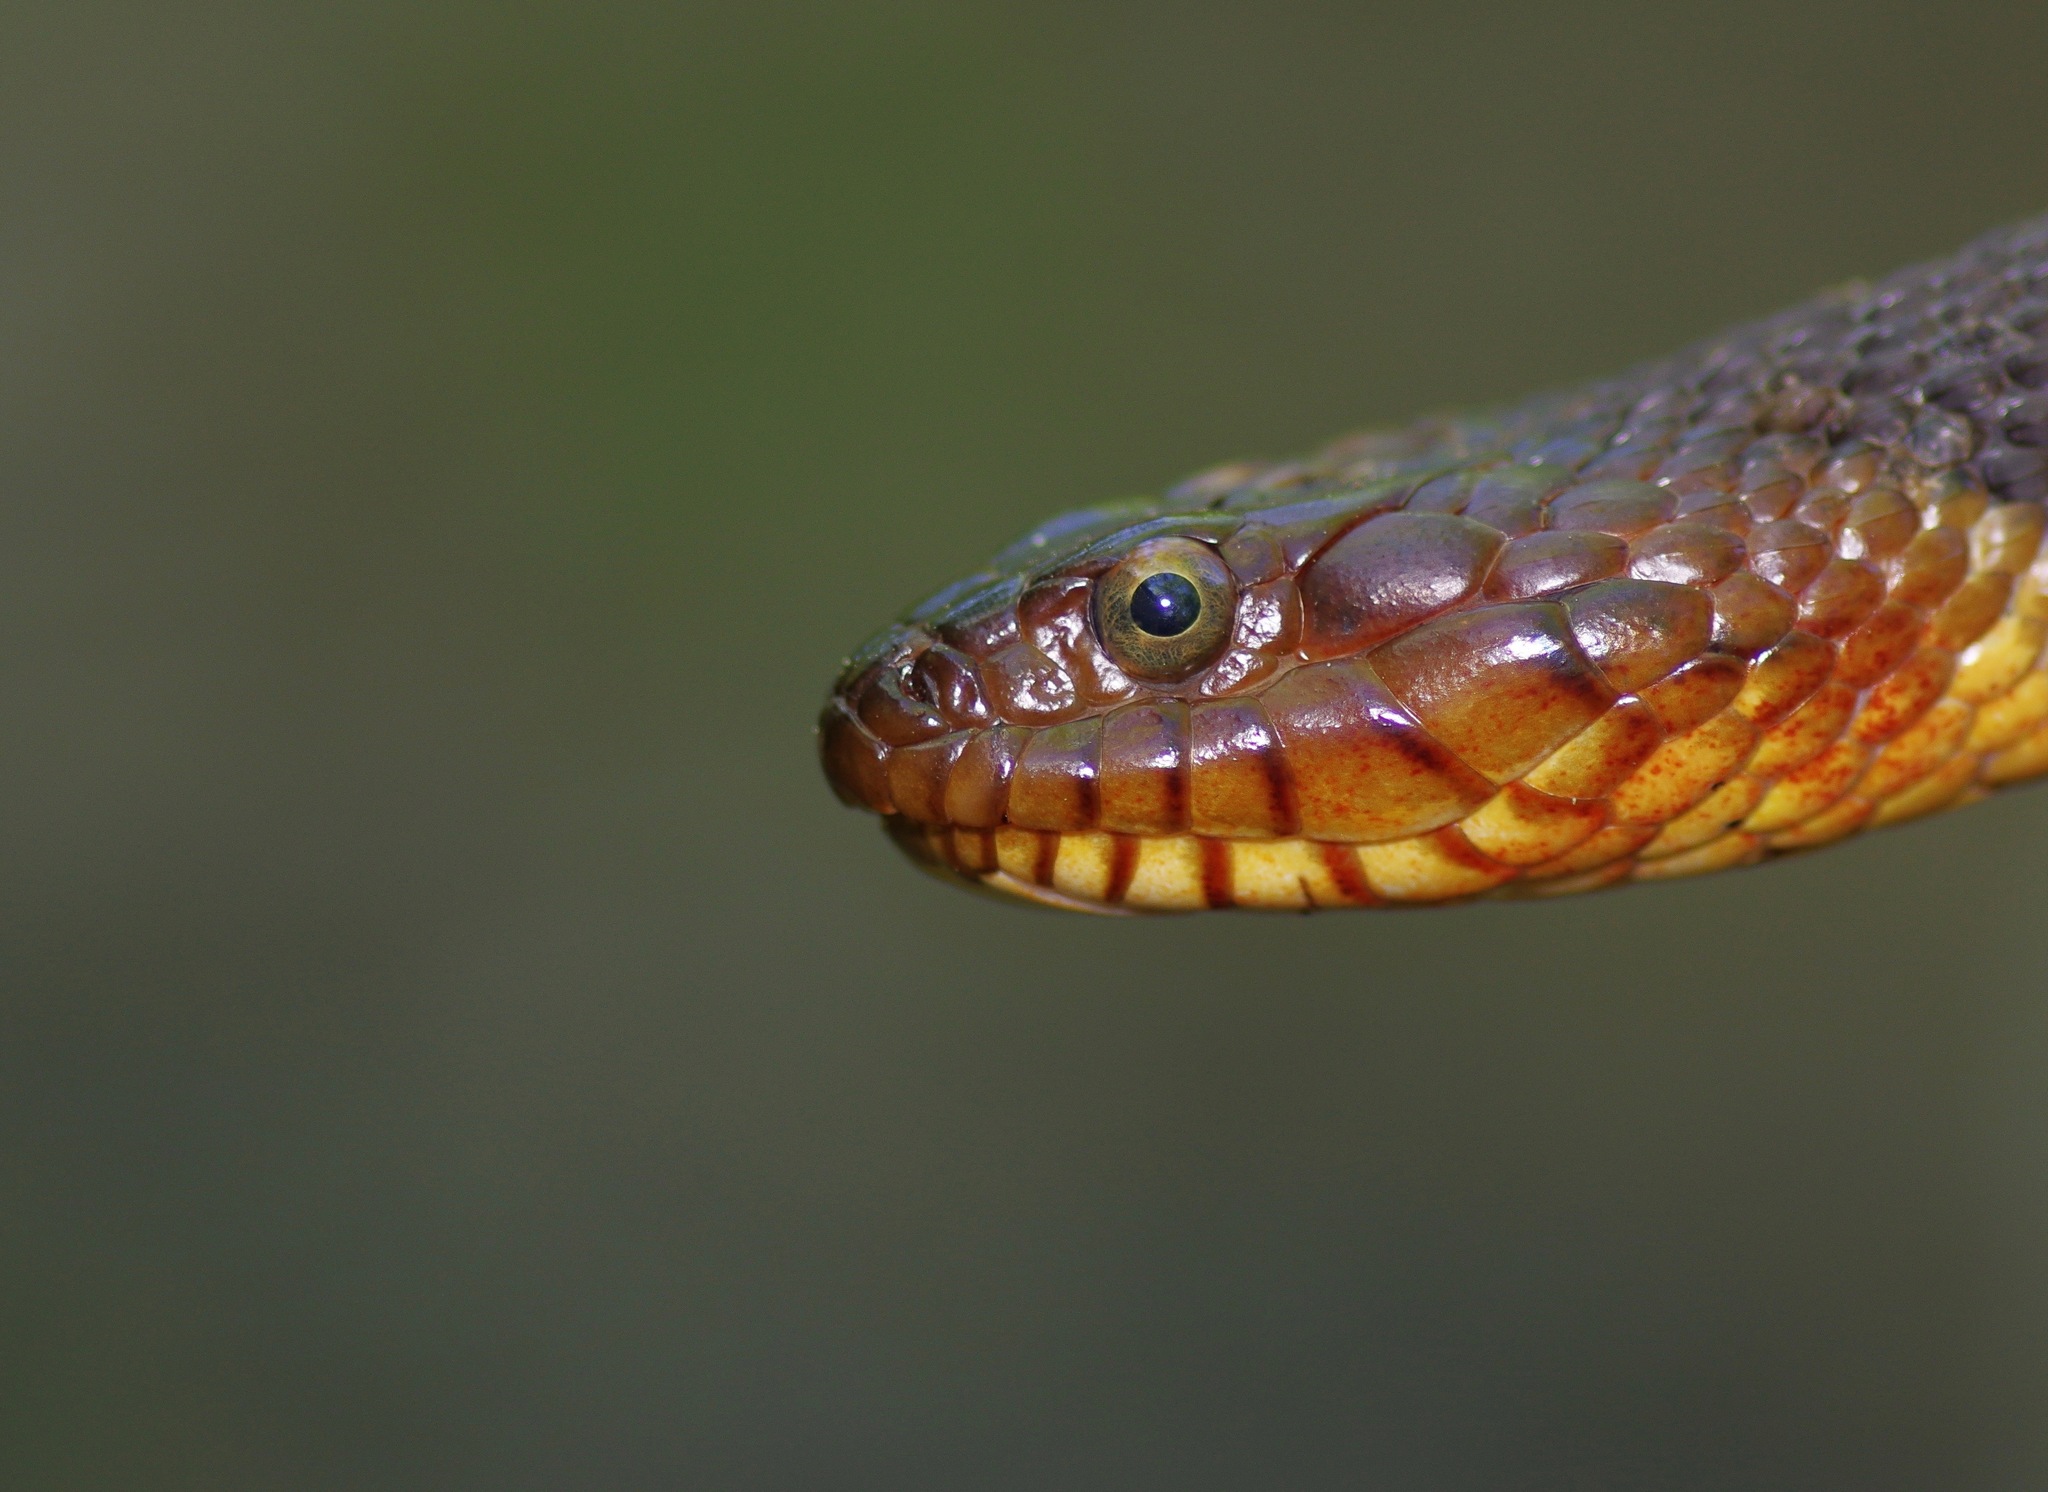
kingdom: Animalia
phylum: Chordata
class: Squamata
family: Colubridae
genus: Nerodia
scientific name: Nerodia fasciata
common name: Southern water snake
